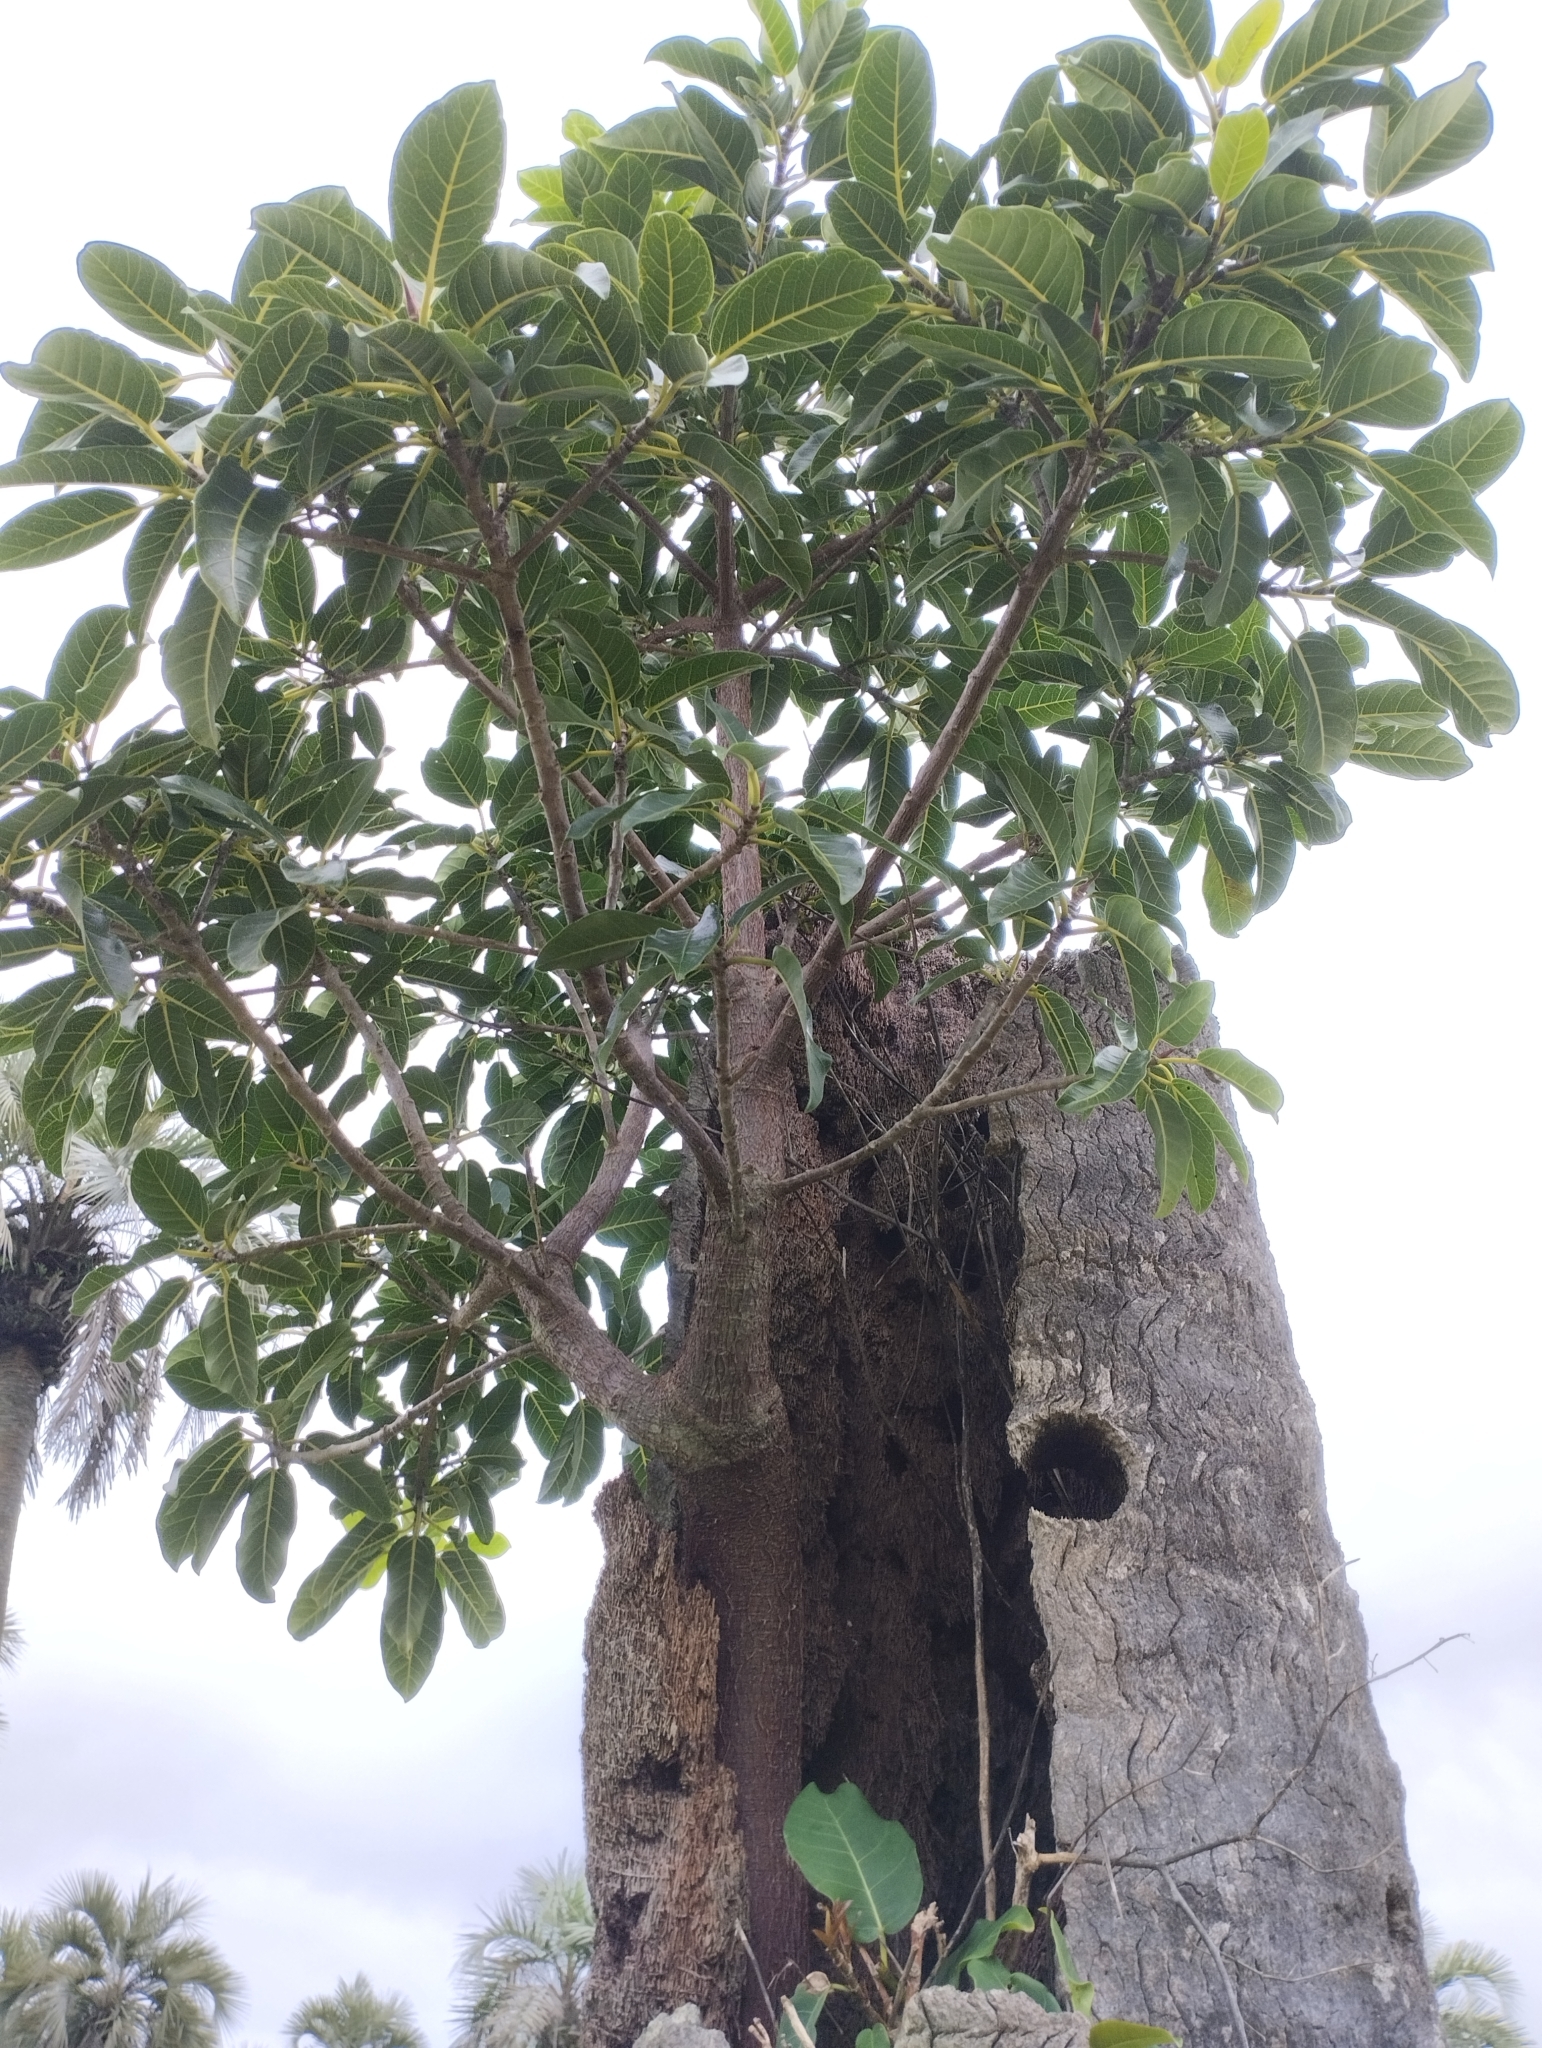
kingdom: Plantae
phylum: Tracheophyta
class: Magnoliopsida
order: Rosales
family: Moraceae
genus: Ficus
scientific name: Ficus luschnathiana
